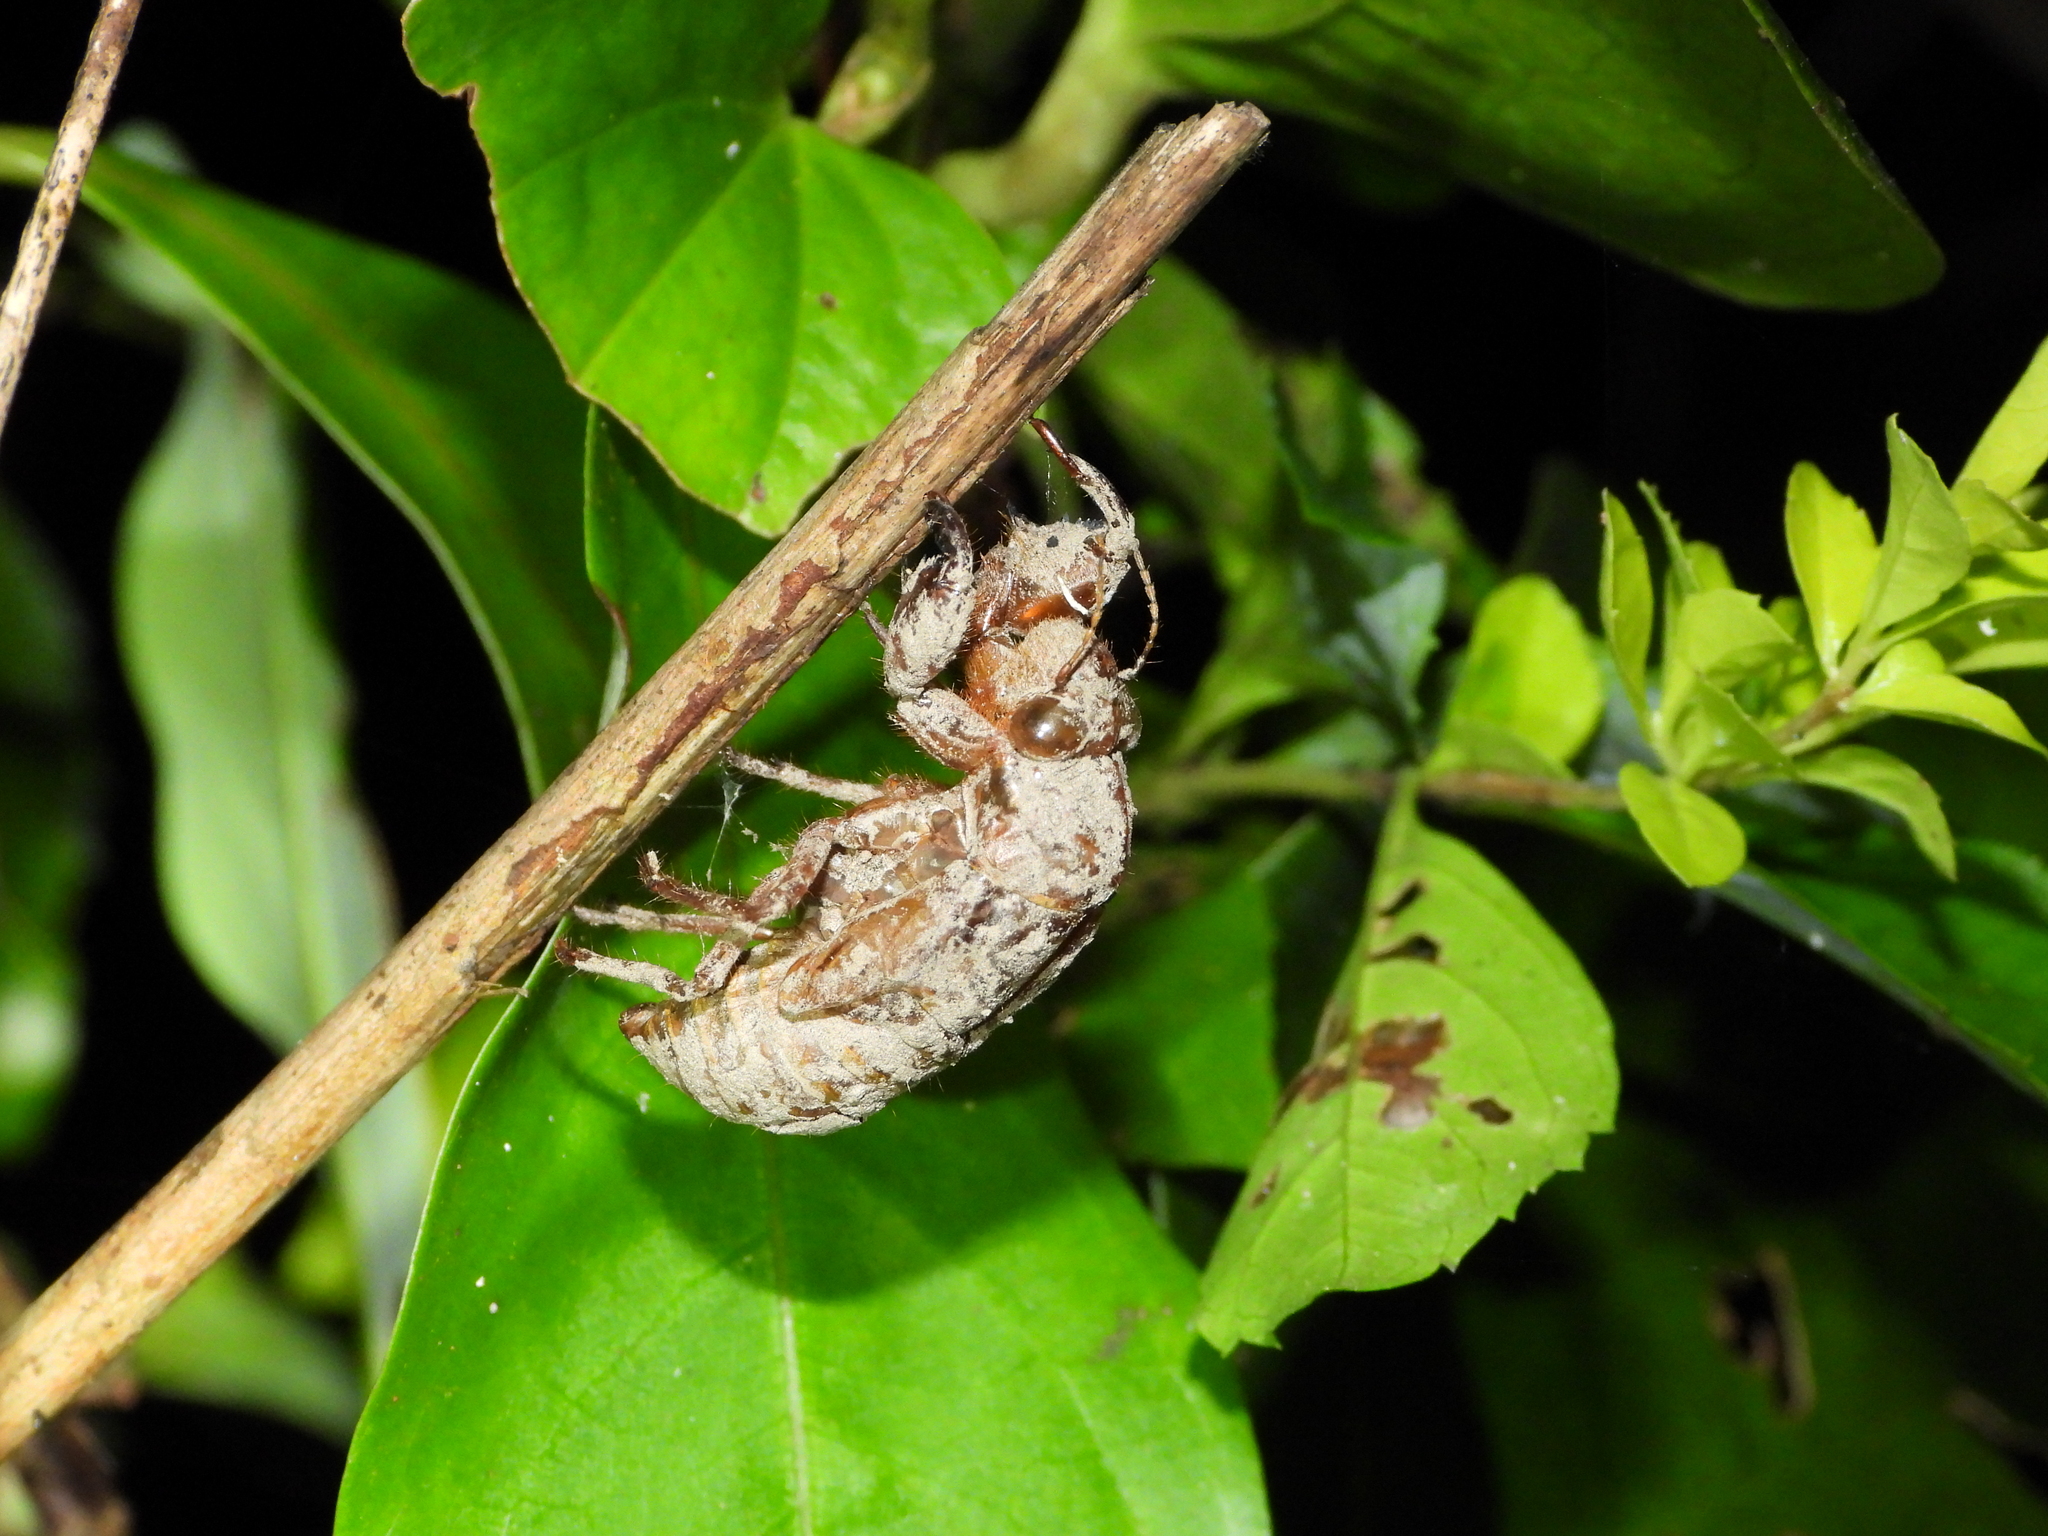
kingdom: Animalia
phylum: Arthropoda
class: Insecta
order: Hemiptera
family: Cicadidae
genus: Pomponia
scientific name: Pomponia yayeyamana
